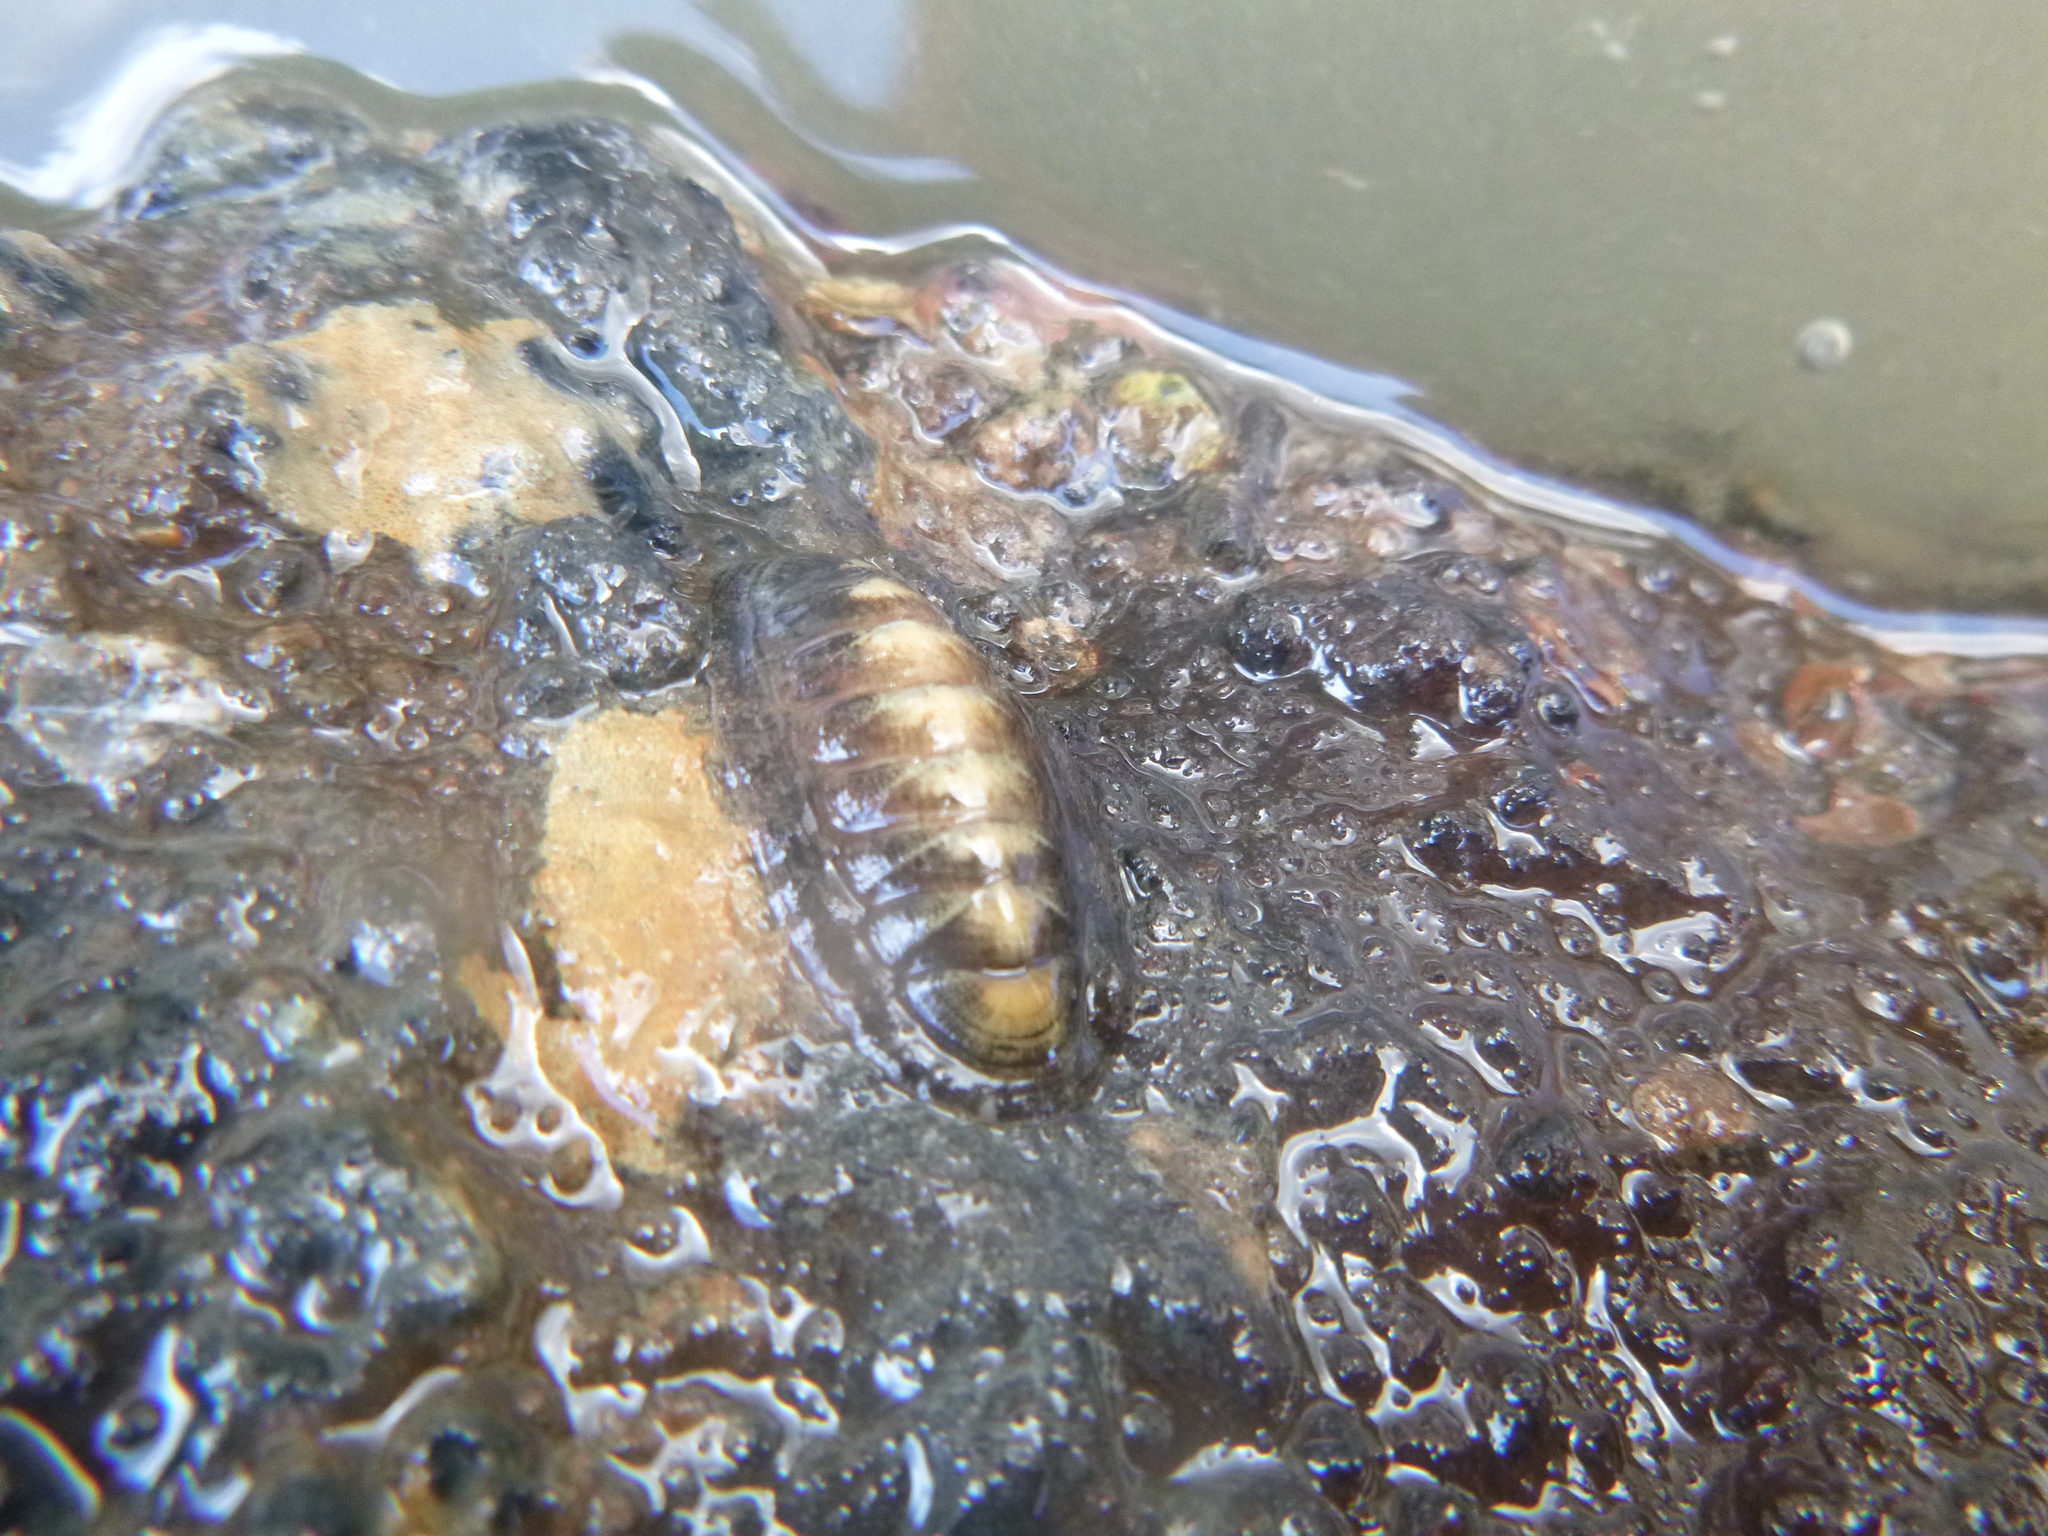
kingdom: Animalia
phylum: Mollusca
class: Polyplacophora
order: Chitonida
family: Ischnochitonidae
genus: Ischnochiton
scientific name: Ischnochiton maorianus
